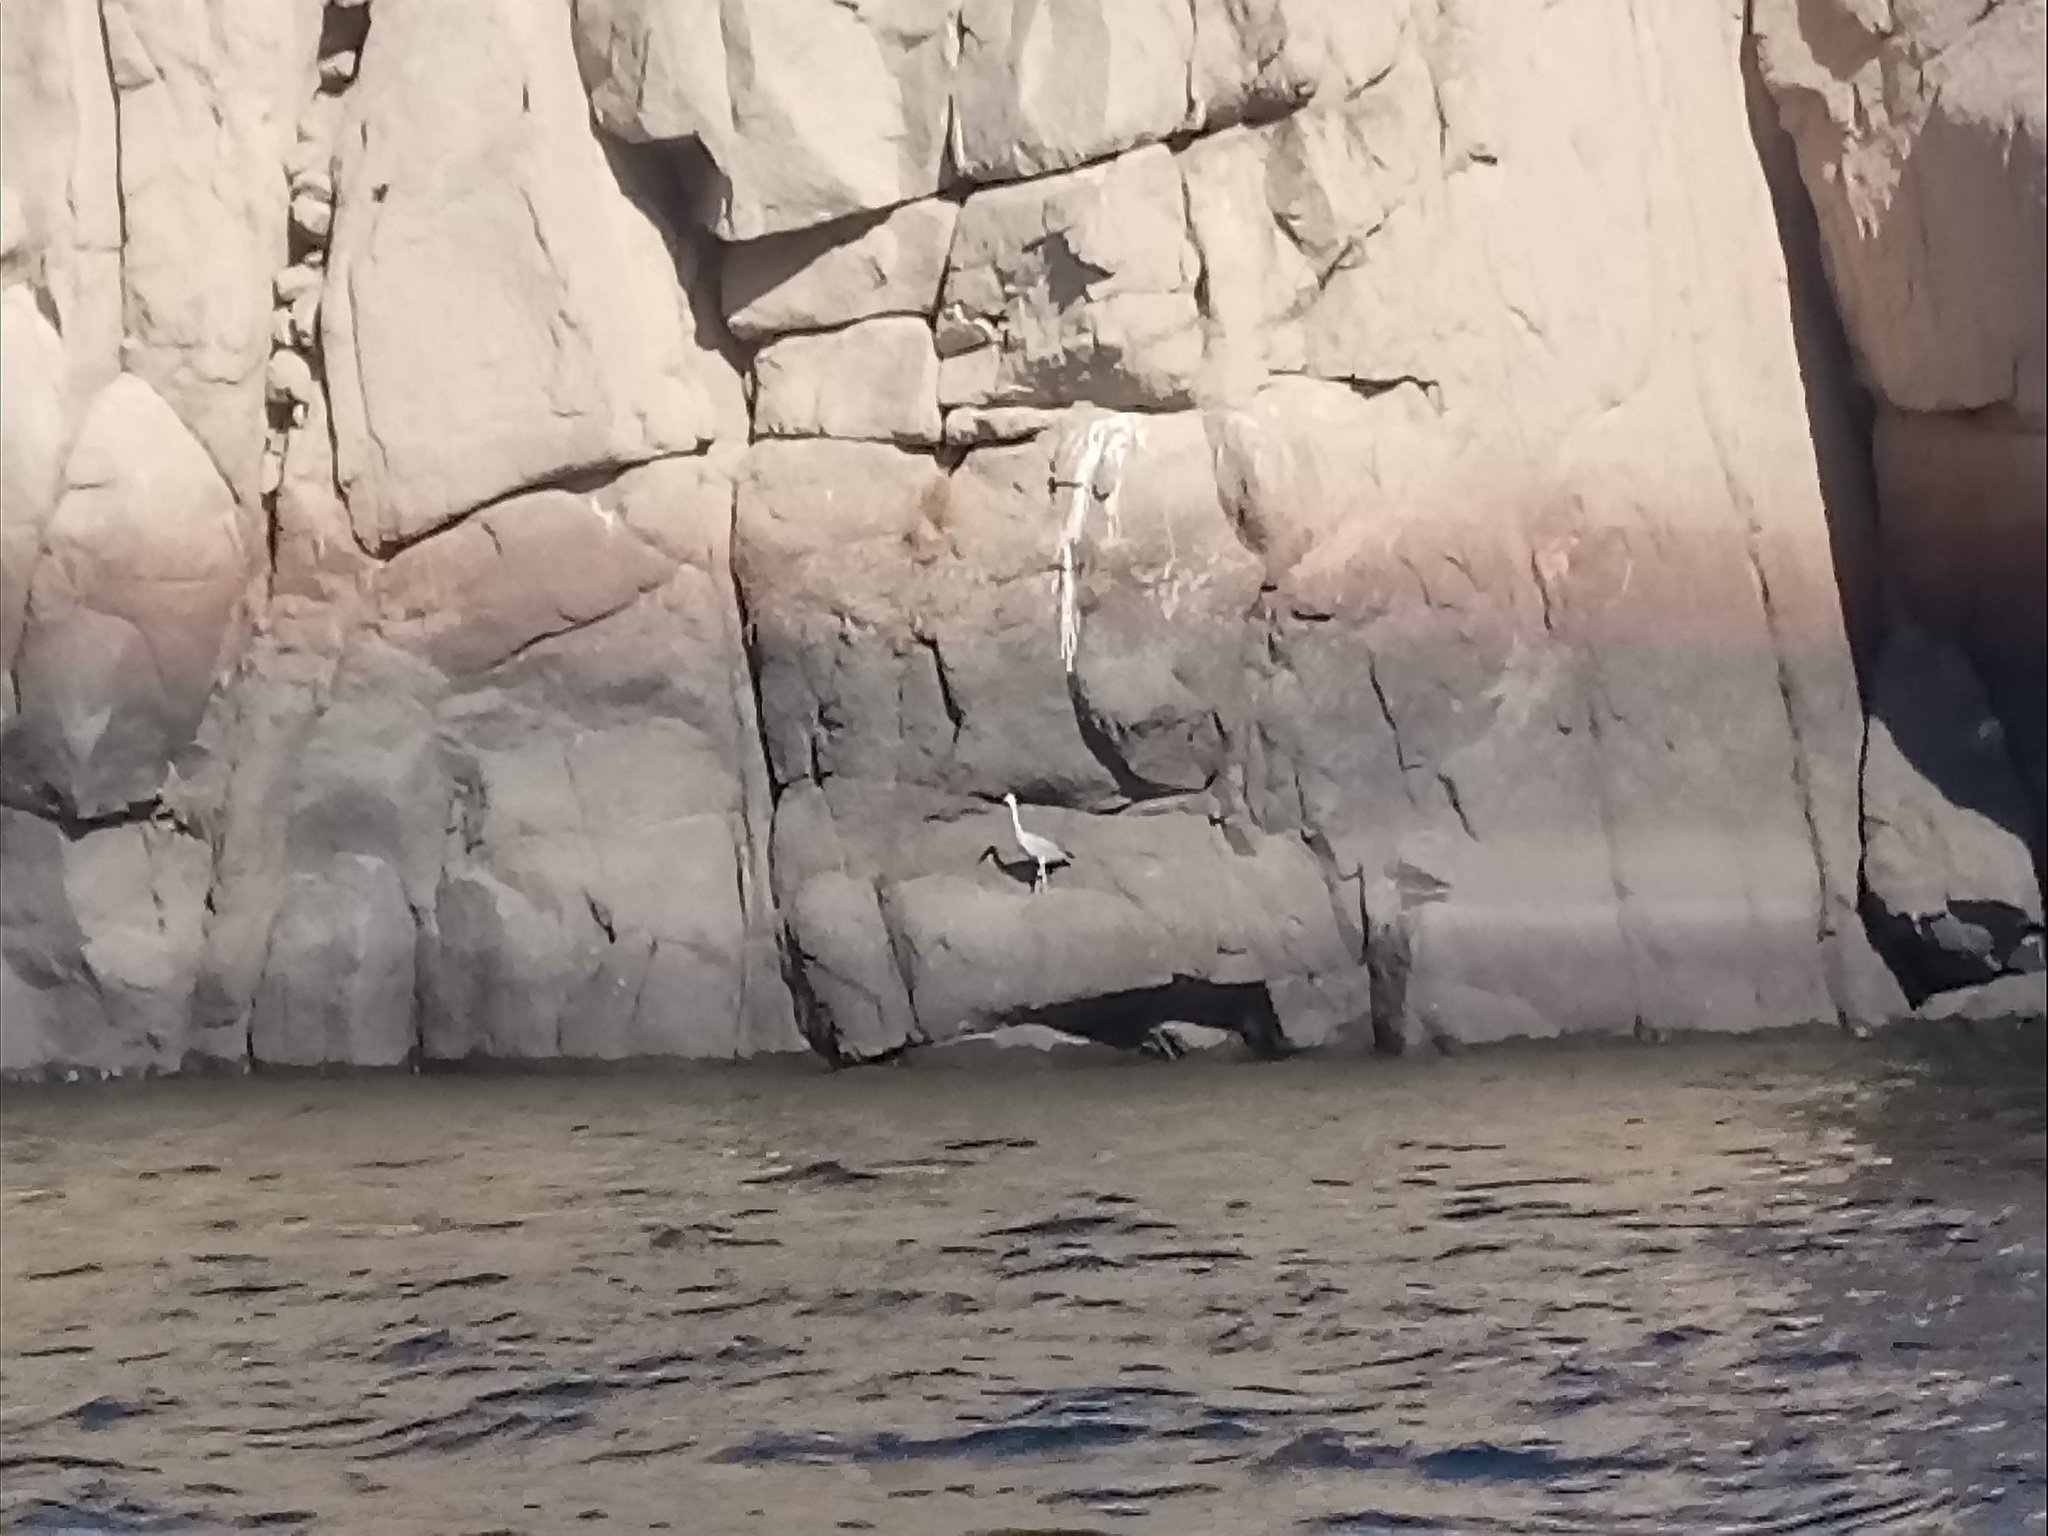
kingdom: Animalia
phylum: Chordata
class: Aves
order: Pelecaniformes
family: Ardeidae
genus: Ardea
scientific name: Ardea cinerea
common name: Grey heron
